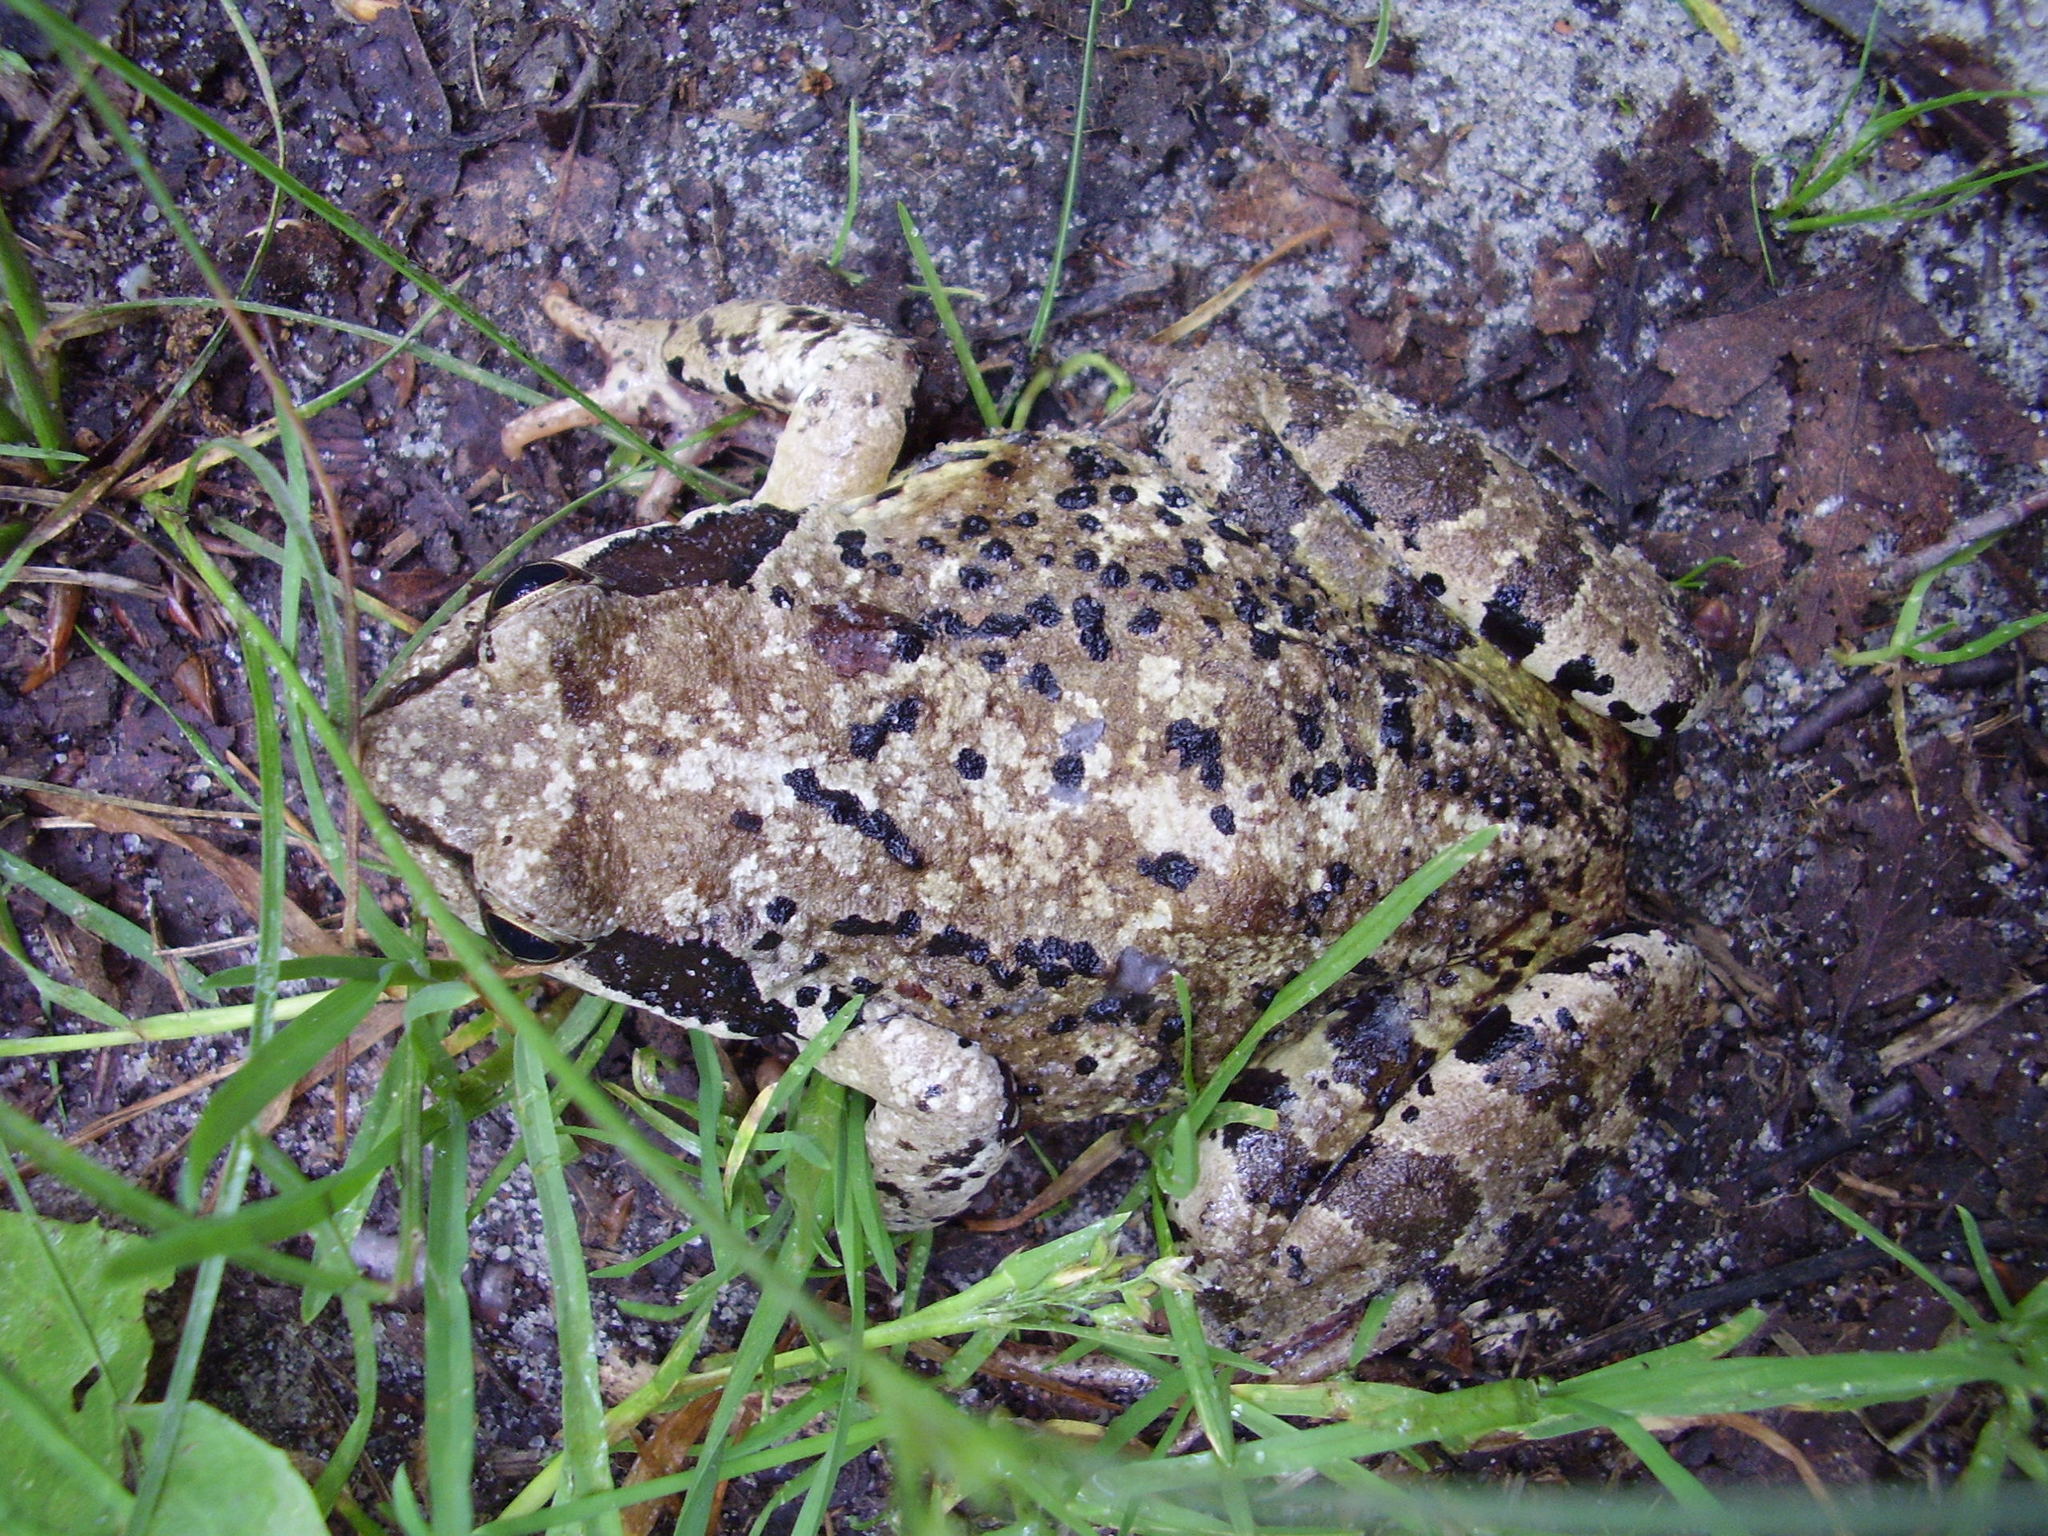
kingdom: Animalia
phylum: Chordata
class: Amphibia
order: Anura
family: Ranidae
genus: Rana
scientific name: Rana temporaria
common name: Common frog
